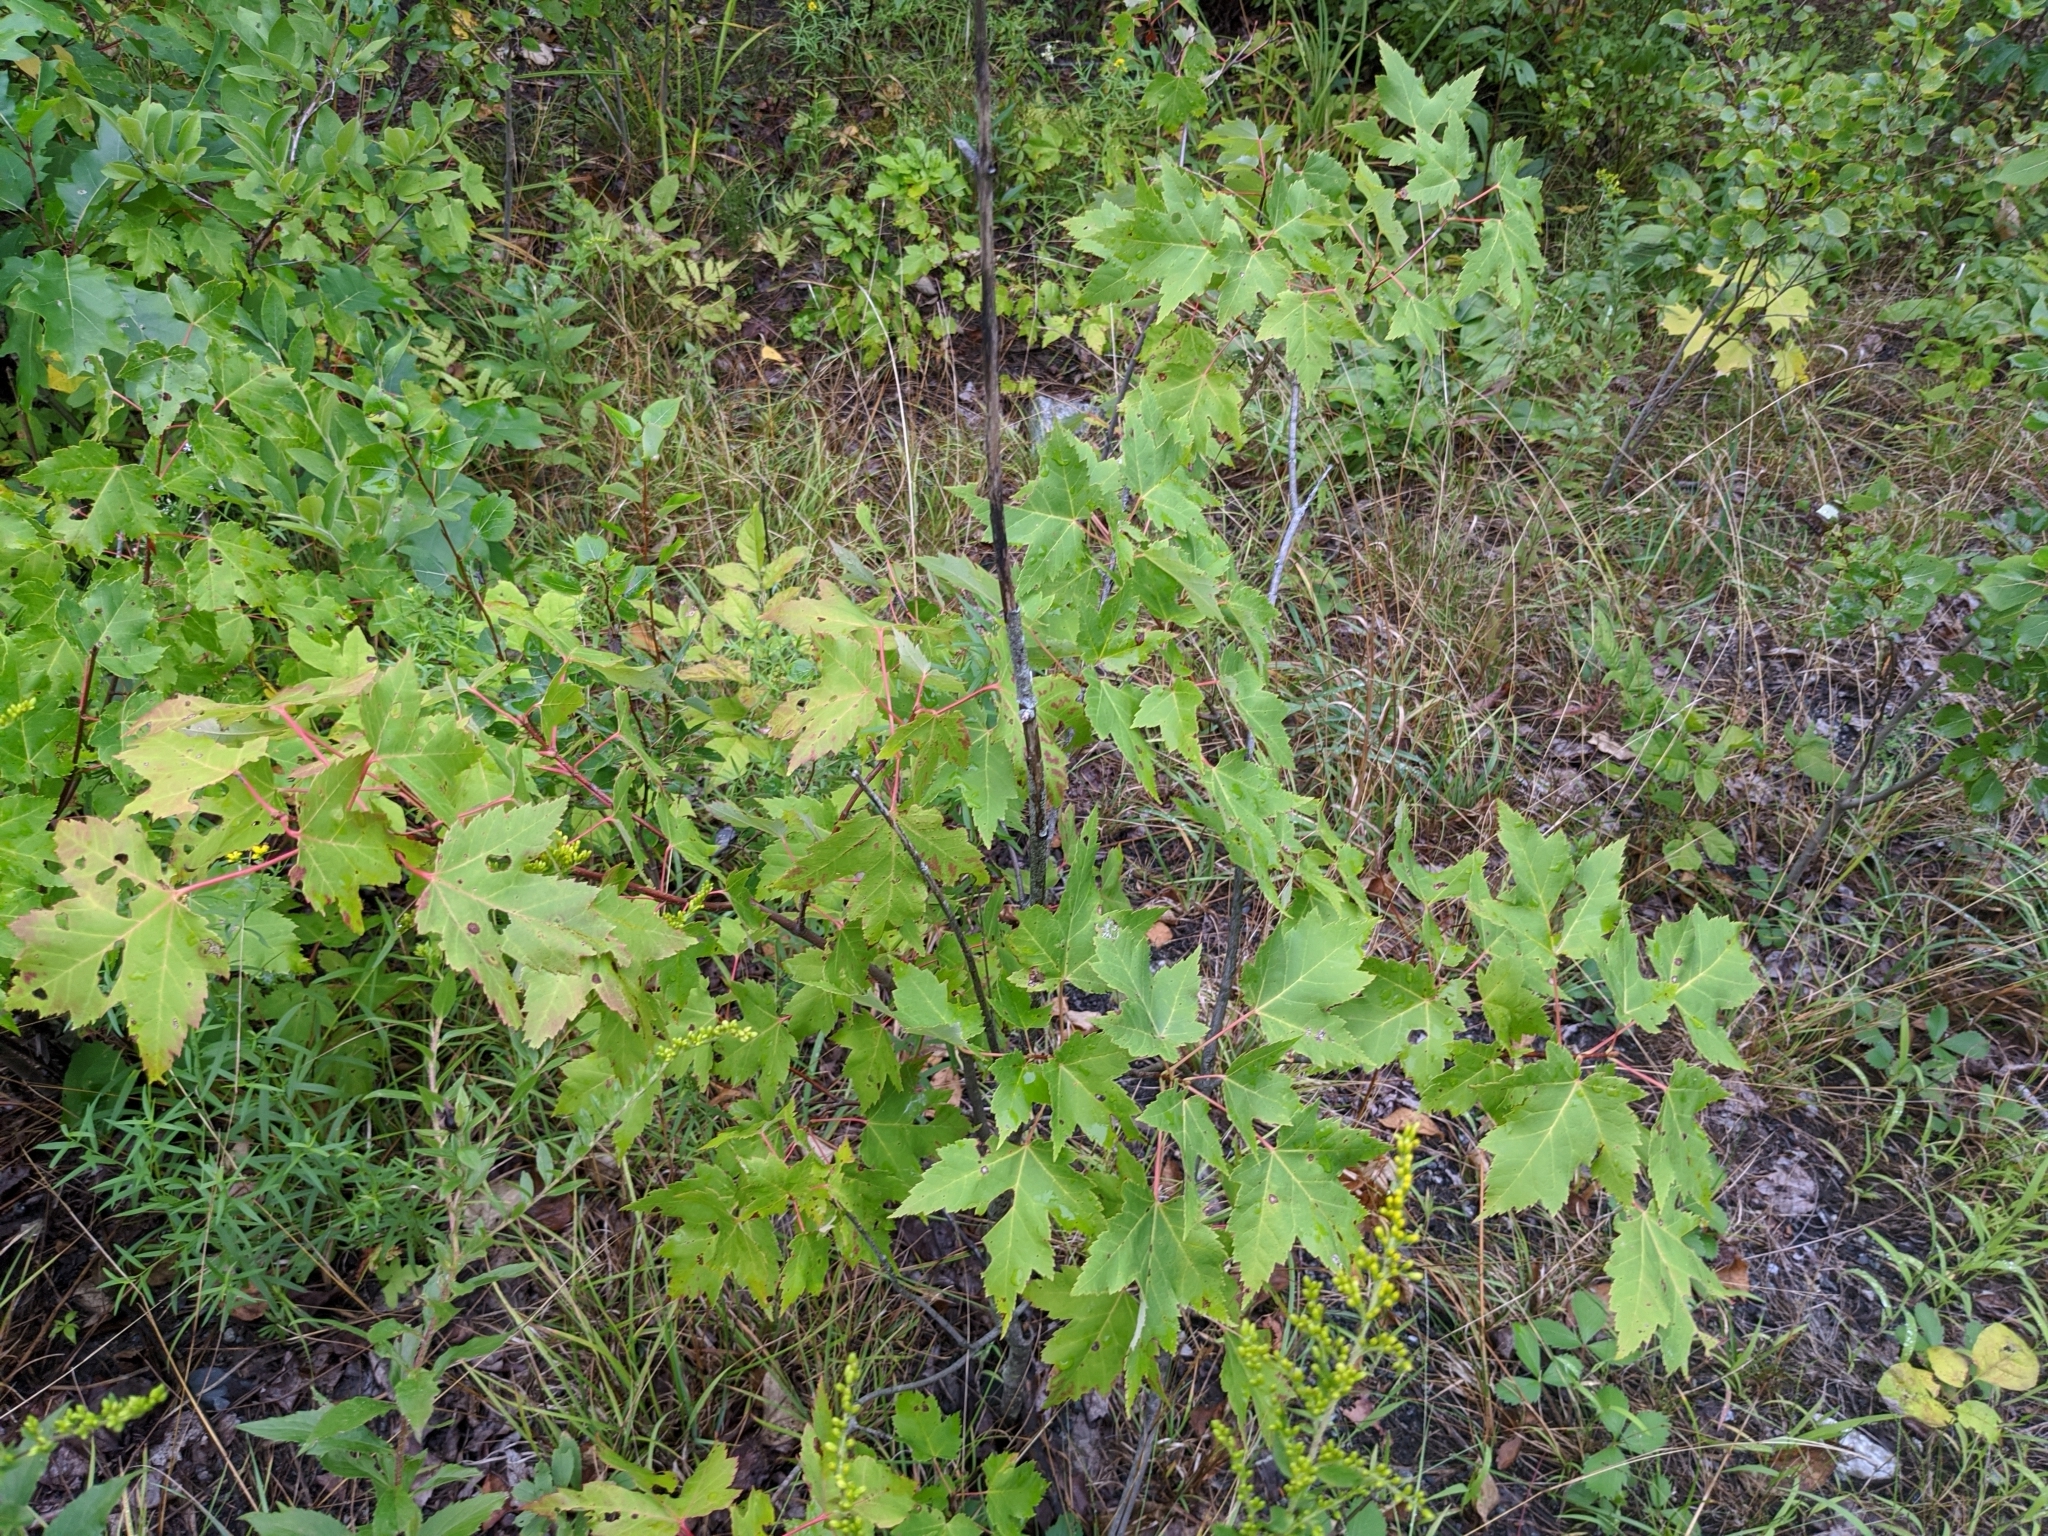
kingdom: Plantae
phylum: Tracheophyta
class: Magnoliopsida
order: Sapindales
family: Sapindaceae
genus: Acer
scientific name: Acer rubrum
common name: Red maple
